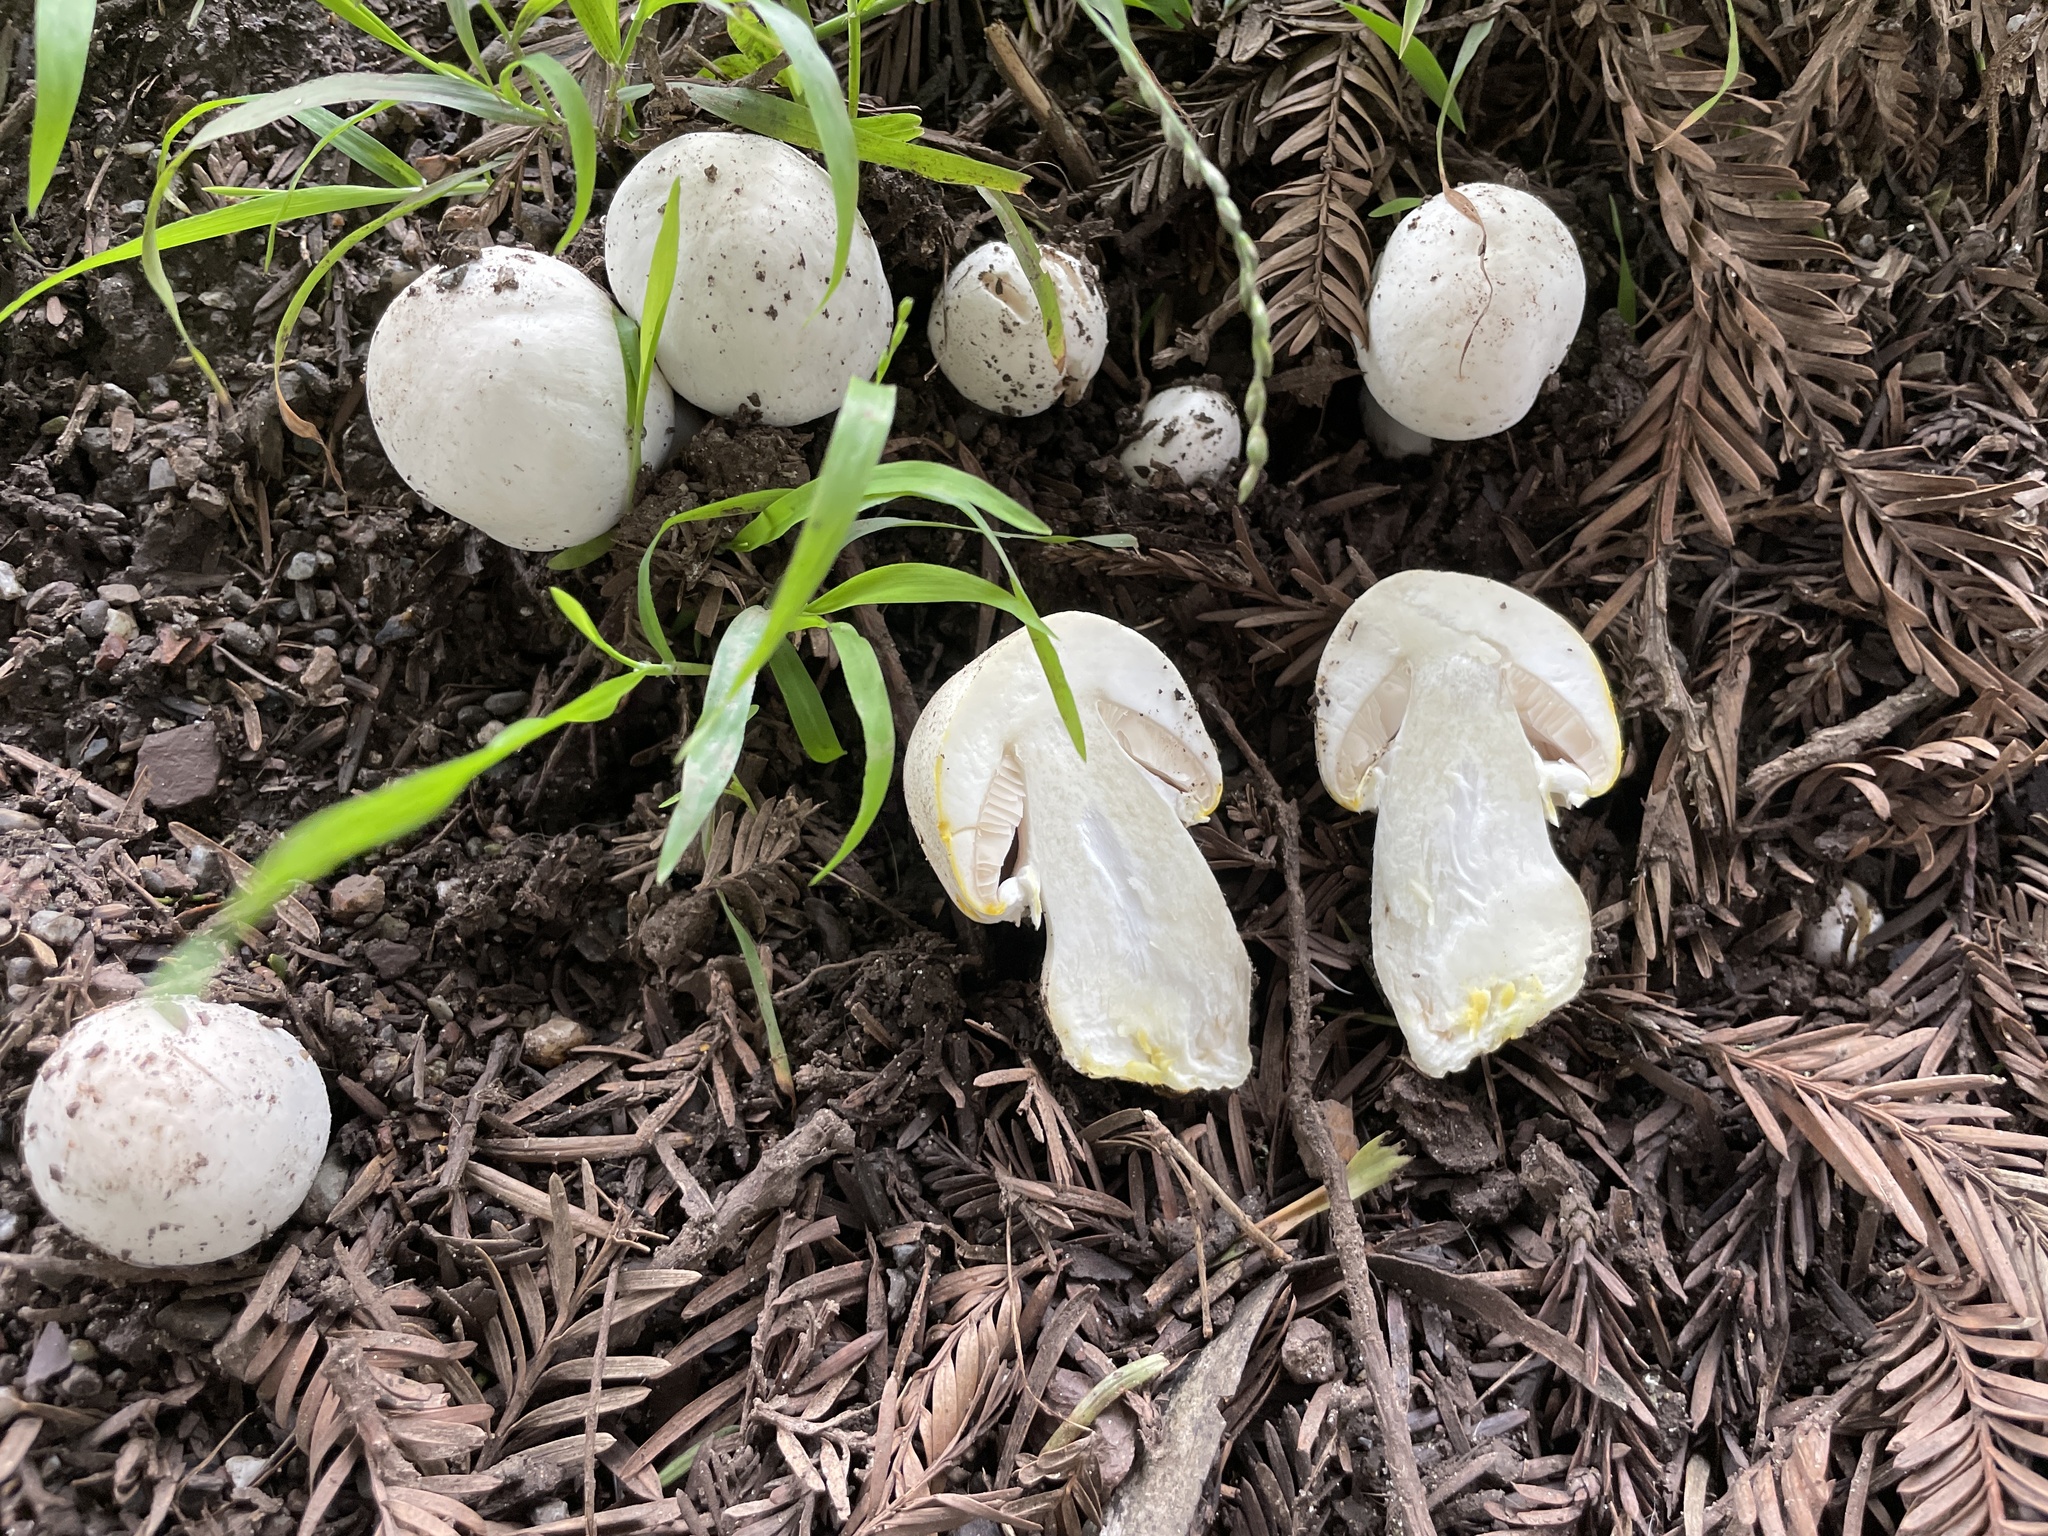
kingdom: Fungi
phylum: Basidiomycota
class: Agaricomycetes
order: Agaricales
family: Agaricaceae
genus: Agaricus
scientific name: Agaricus xanthodermus
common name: Yellow stainer
